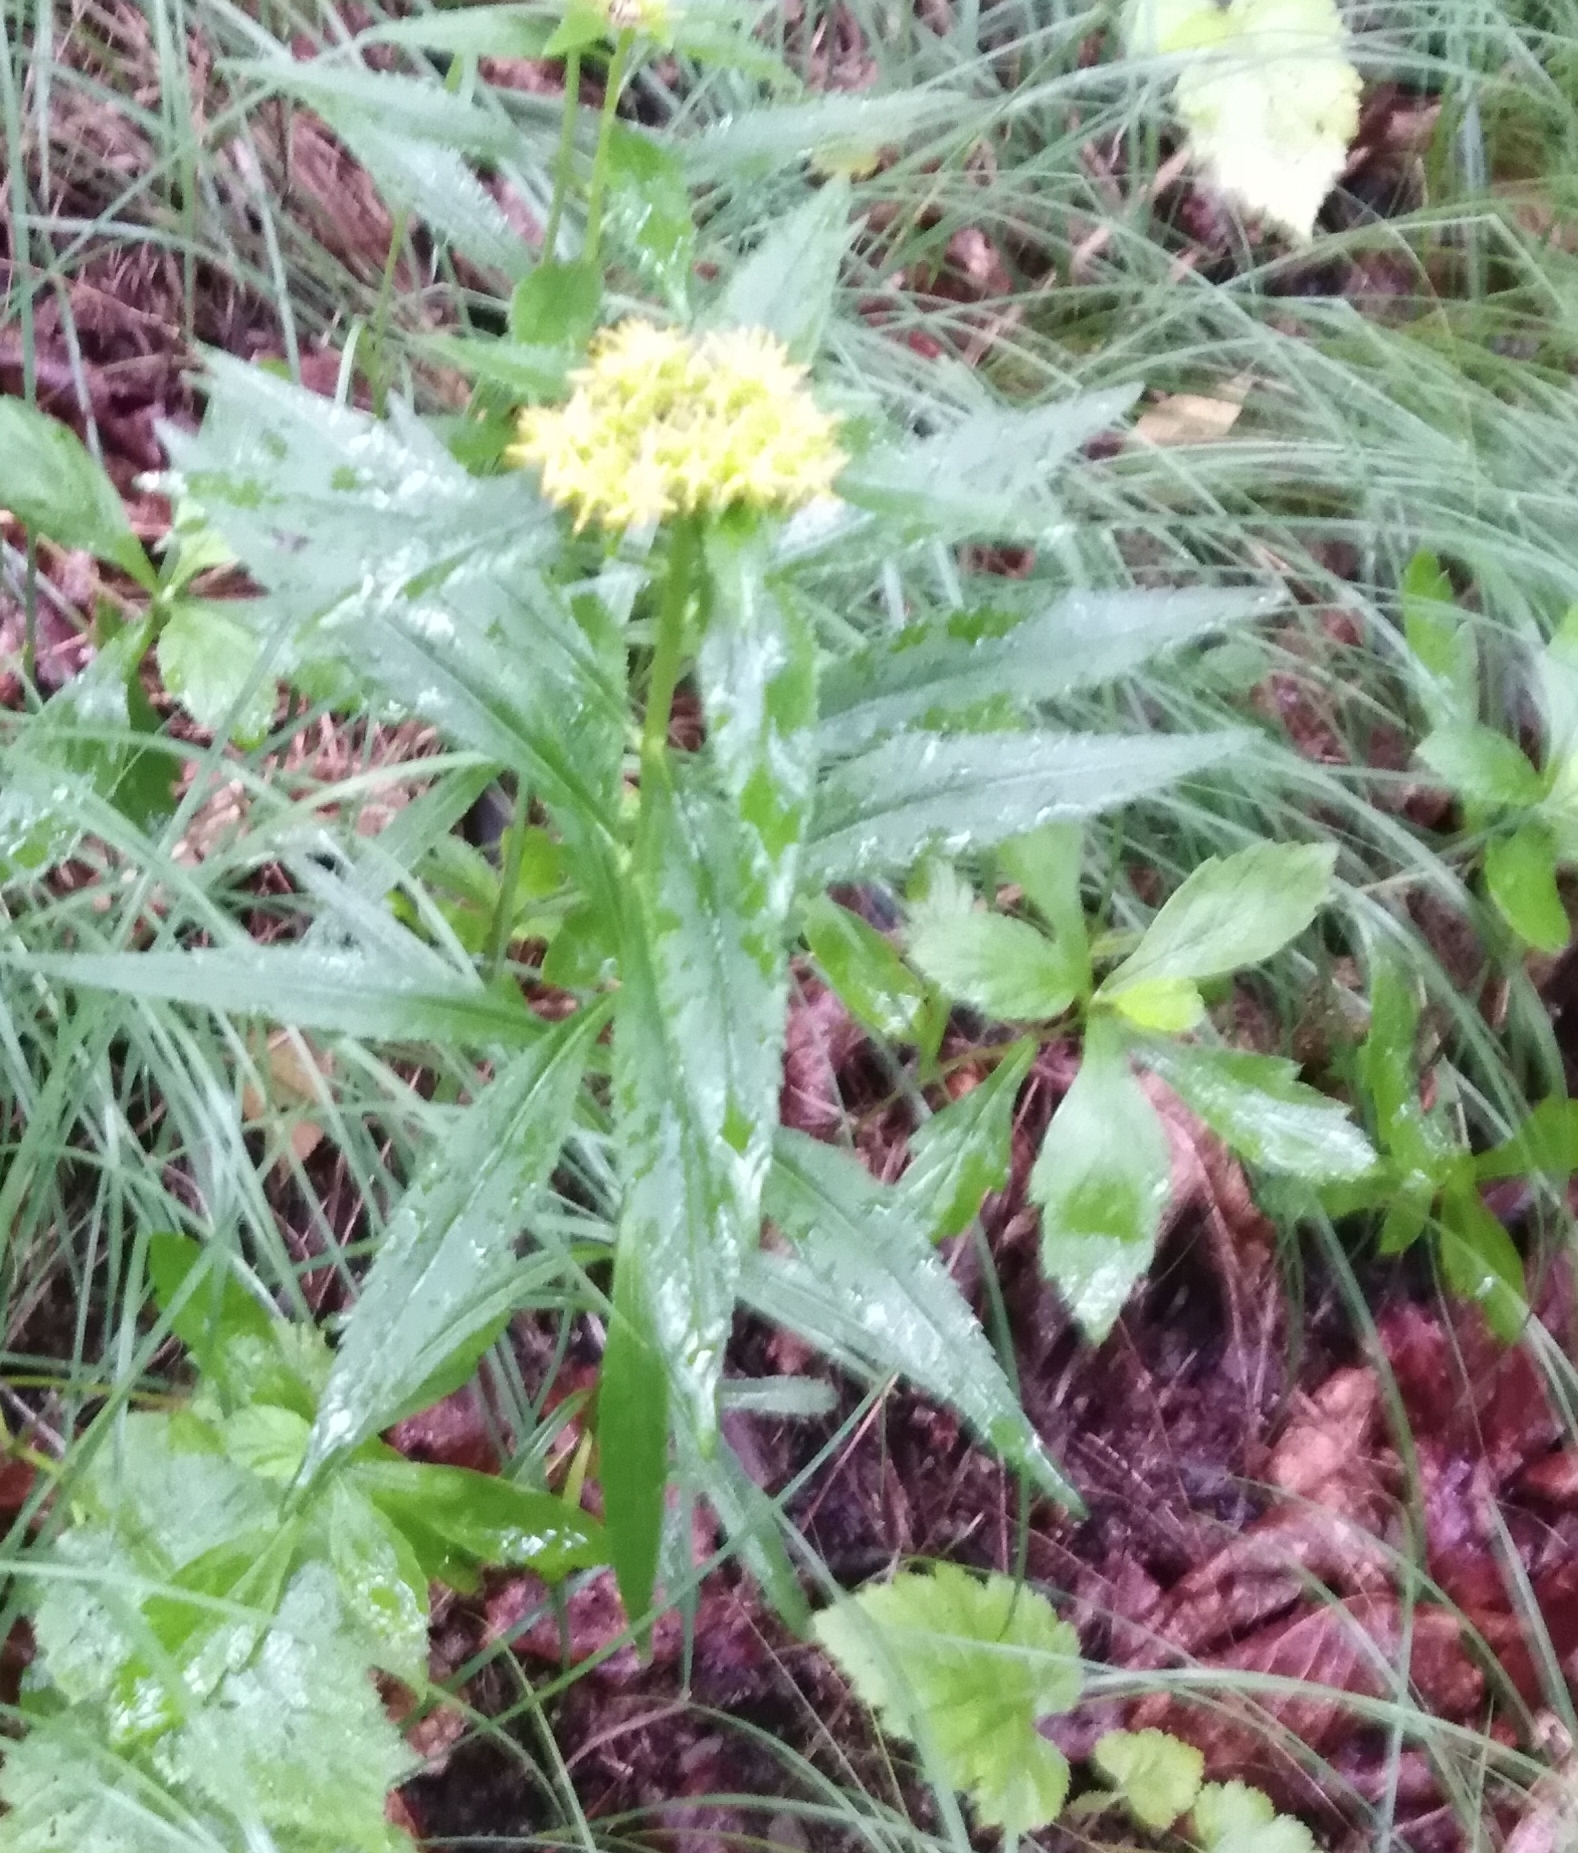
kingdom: Plantae
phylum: Tracheophyta
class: Magnoliopsida
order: Saxifragales
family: Crassulaceae
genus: Phedimus
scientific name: Phedimus aizoon
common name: Orpin aizoon
